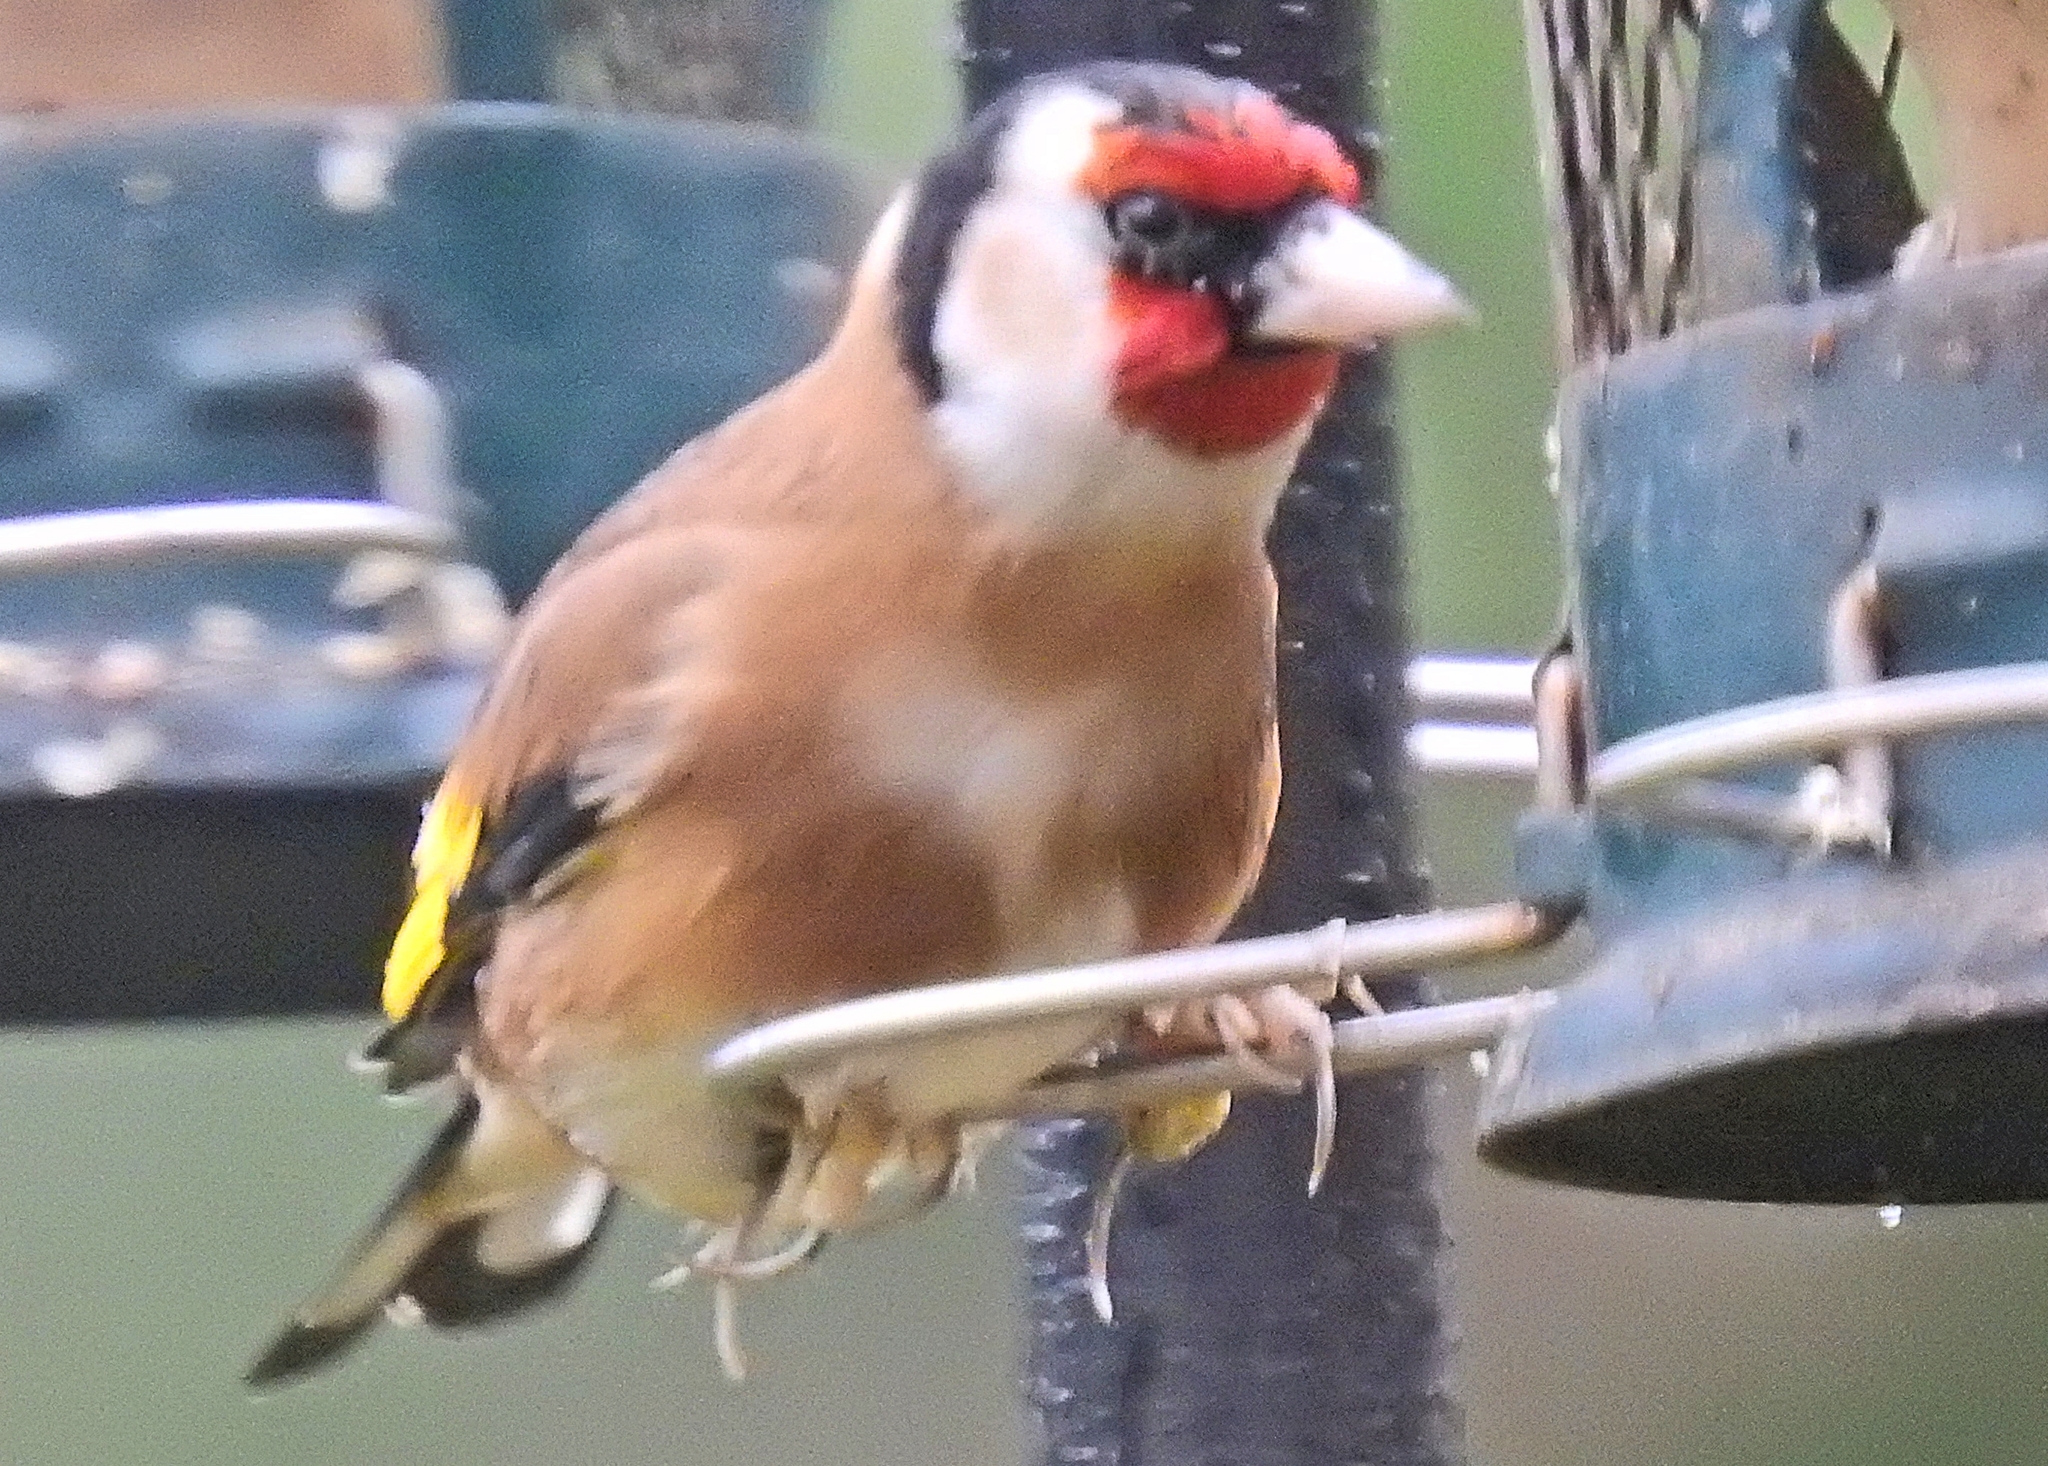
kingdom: Animalia
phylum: Chordata
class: Aves
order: Passeriformes
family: Fringillidae
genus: Carduelis
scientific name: Carduelis carduelis
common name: European goldfinch
